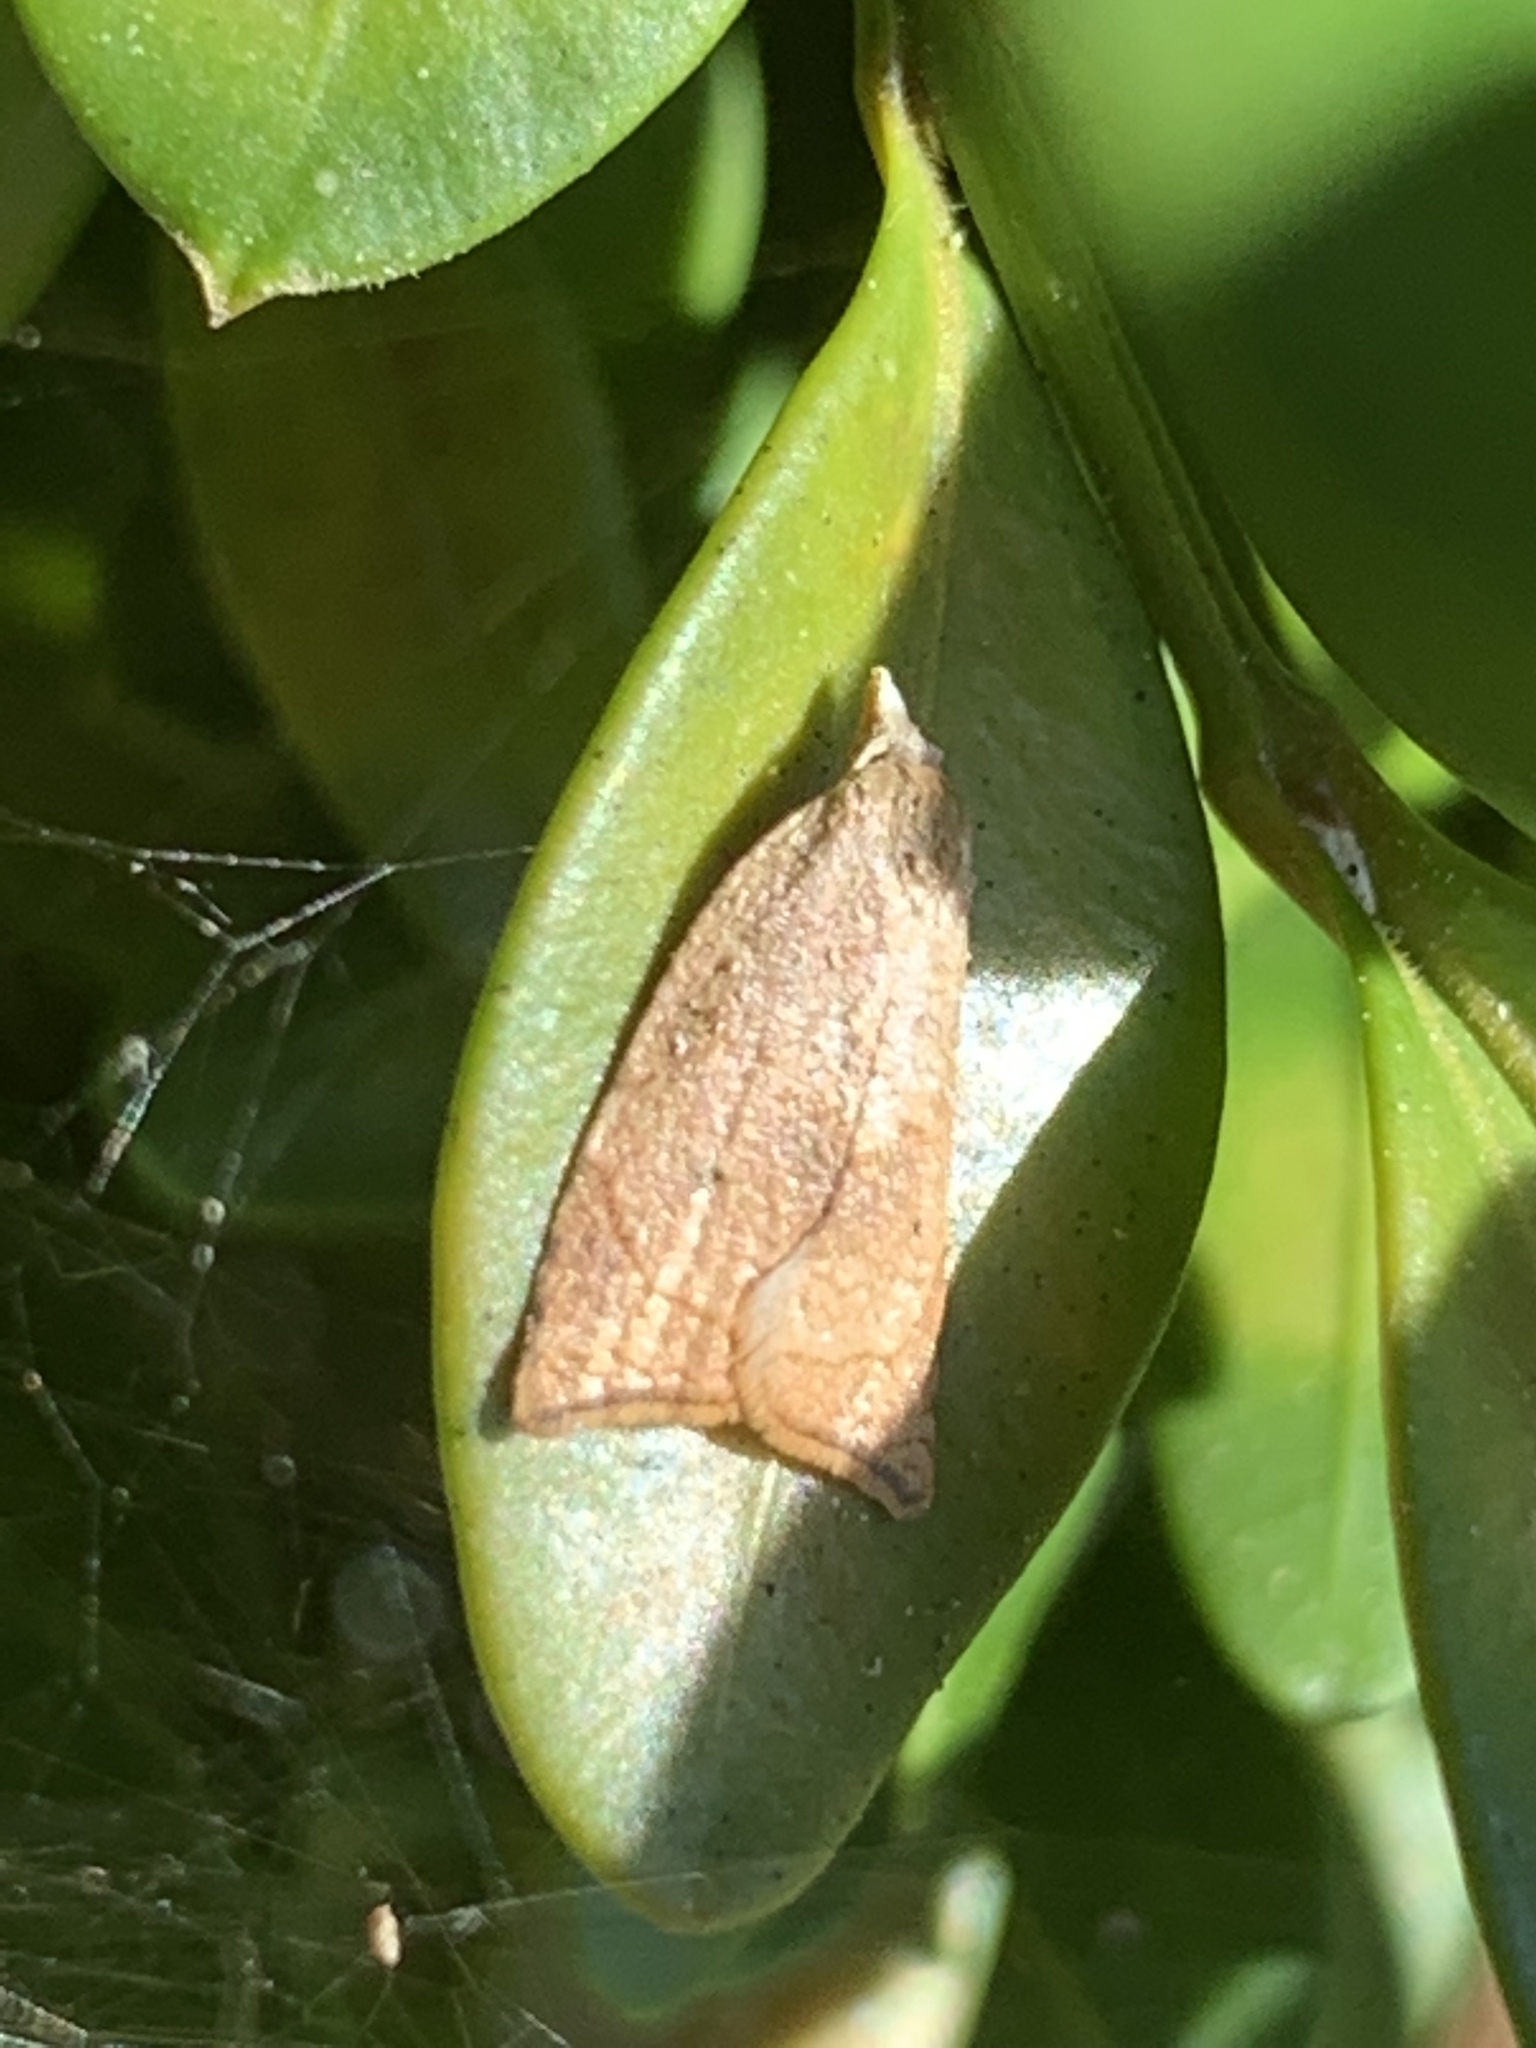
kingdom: Animalia
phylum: Arthropoda
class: Insecta
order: Lepidoptera
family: Tortricidae
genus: Coelostathma
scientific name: Coelostathma discopunctana
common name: Batman moth
